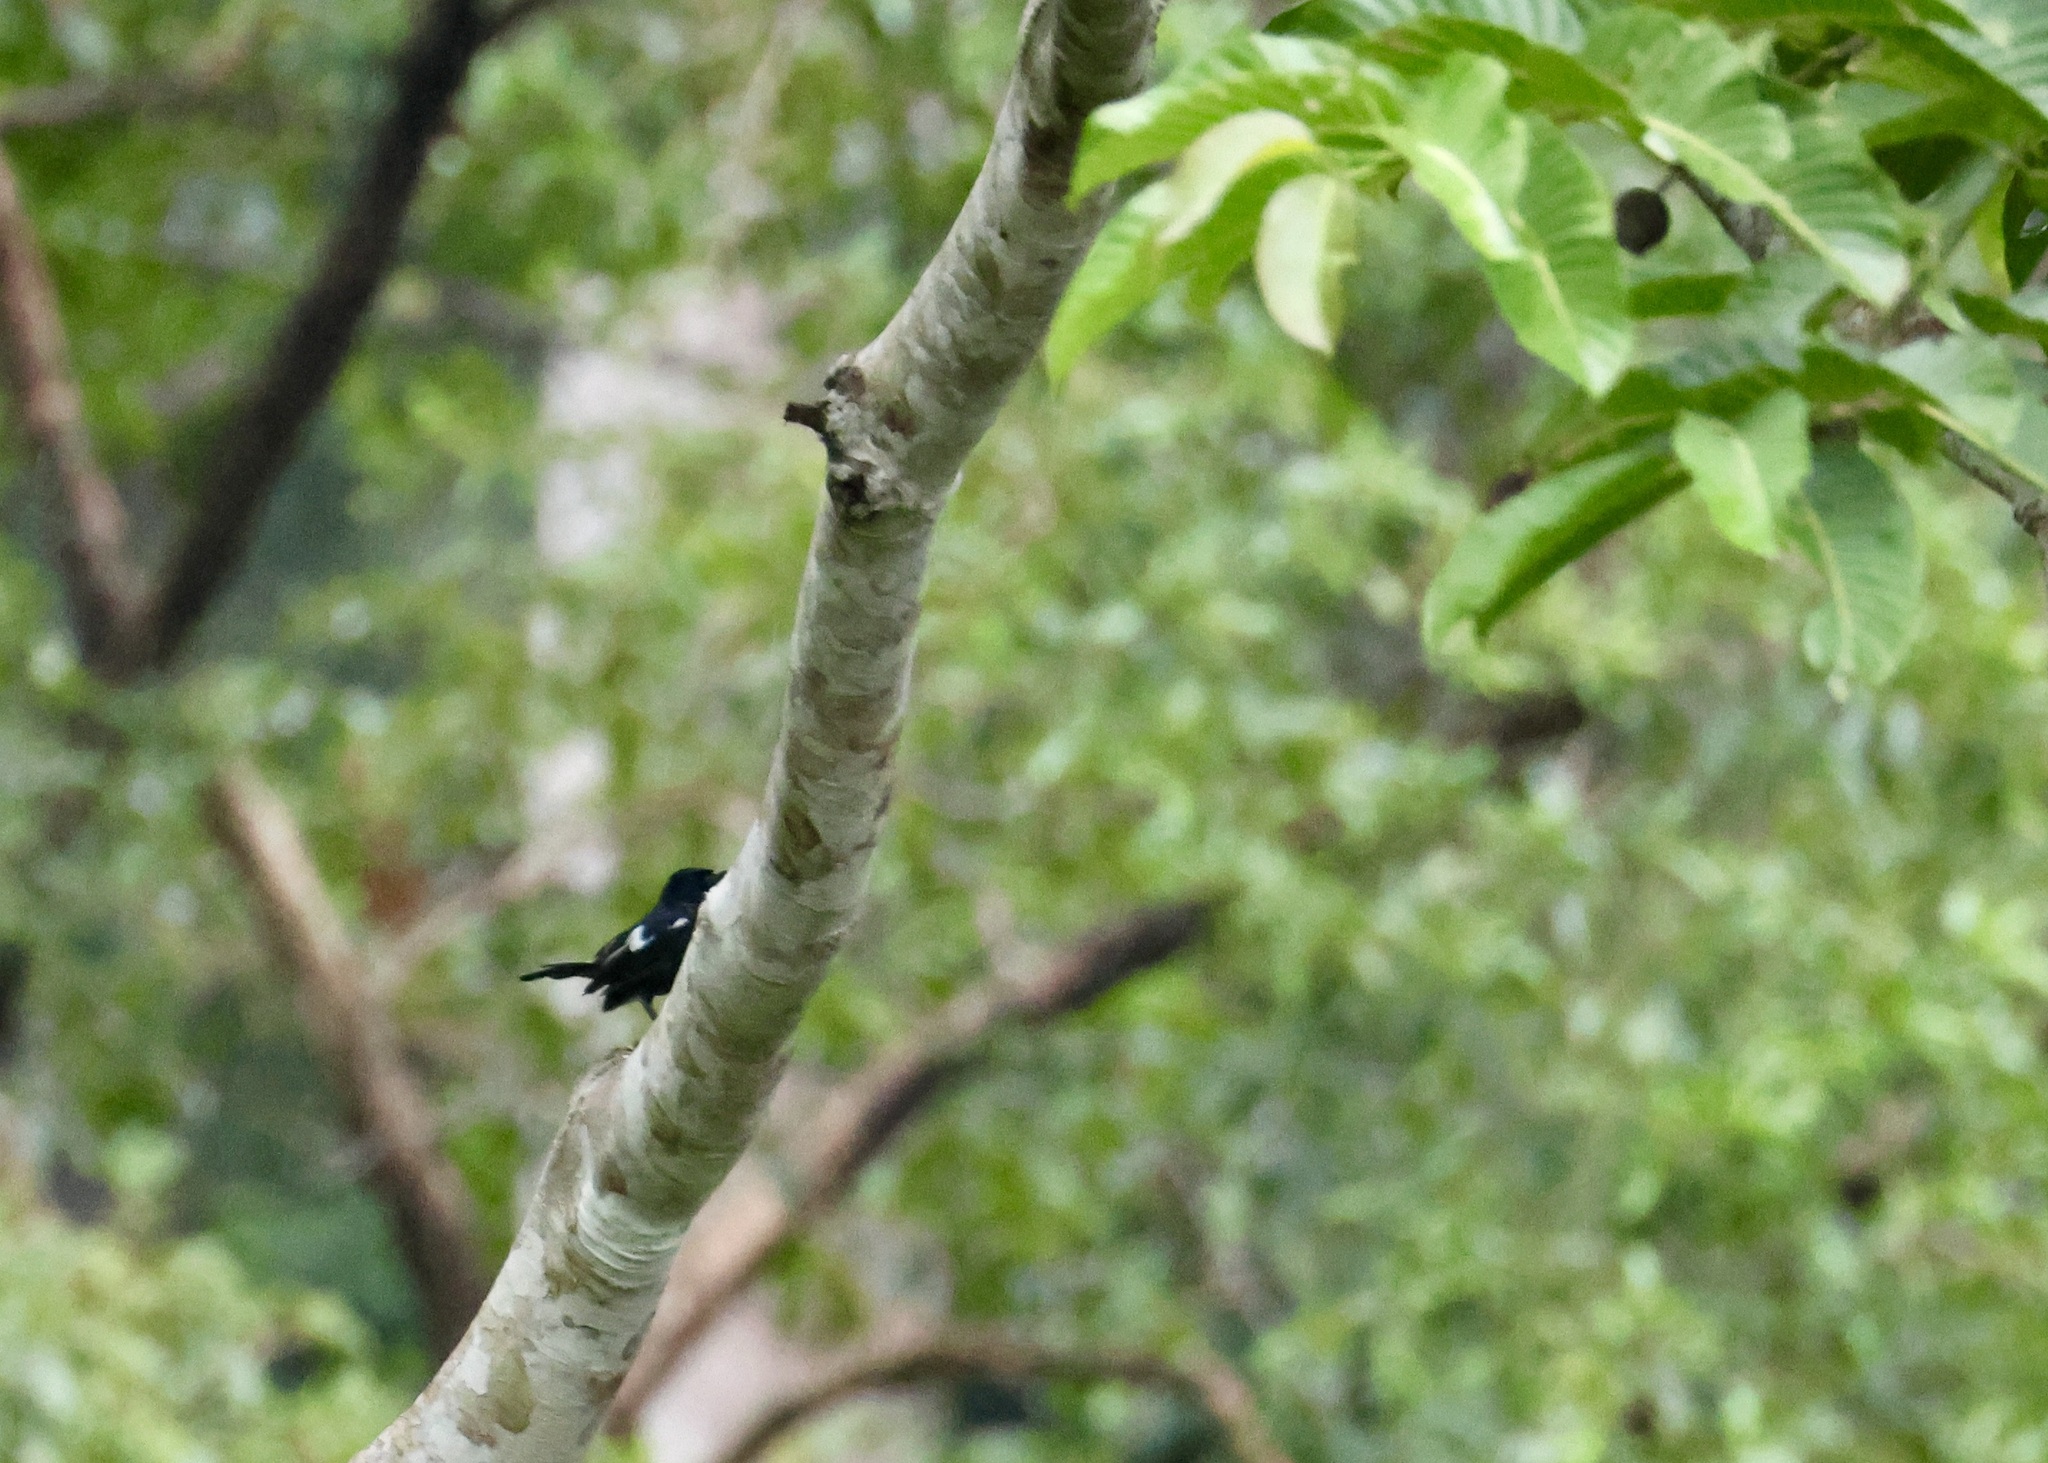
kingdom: Animalia
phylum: Chordata
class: Aves
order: Passeriformes
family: Muscicapidae
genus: Copsychus
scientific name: Copsychus saularis
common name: Oriental magpie-robin
